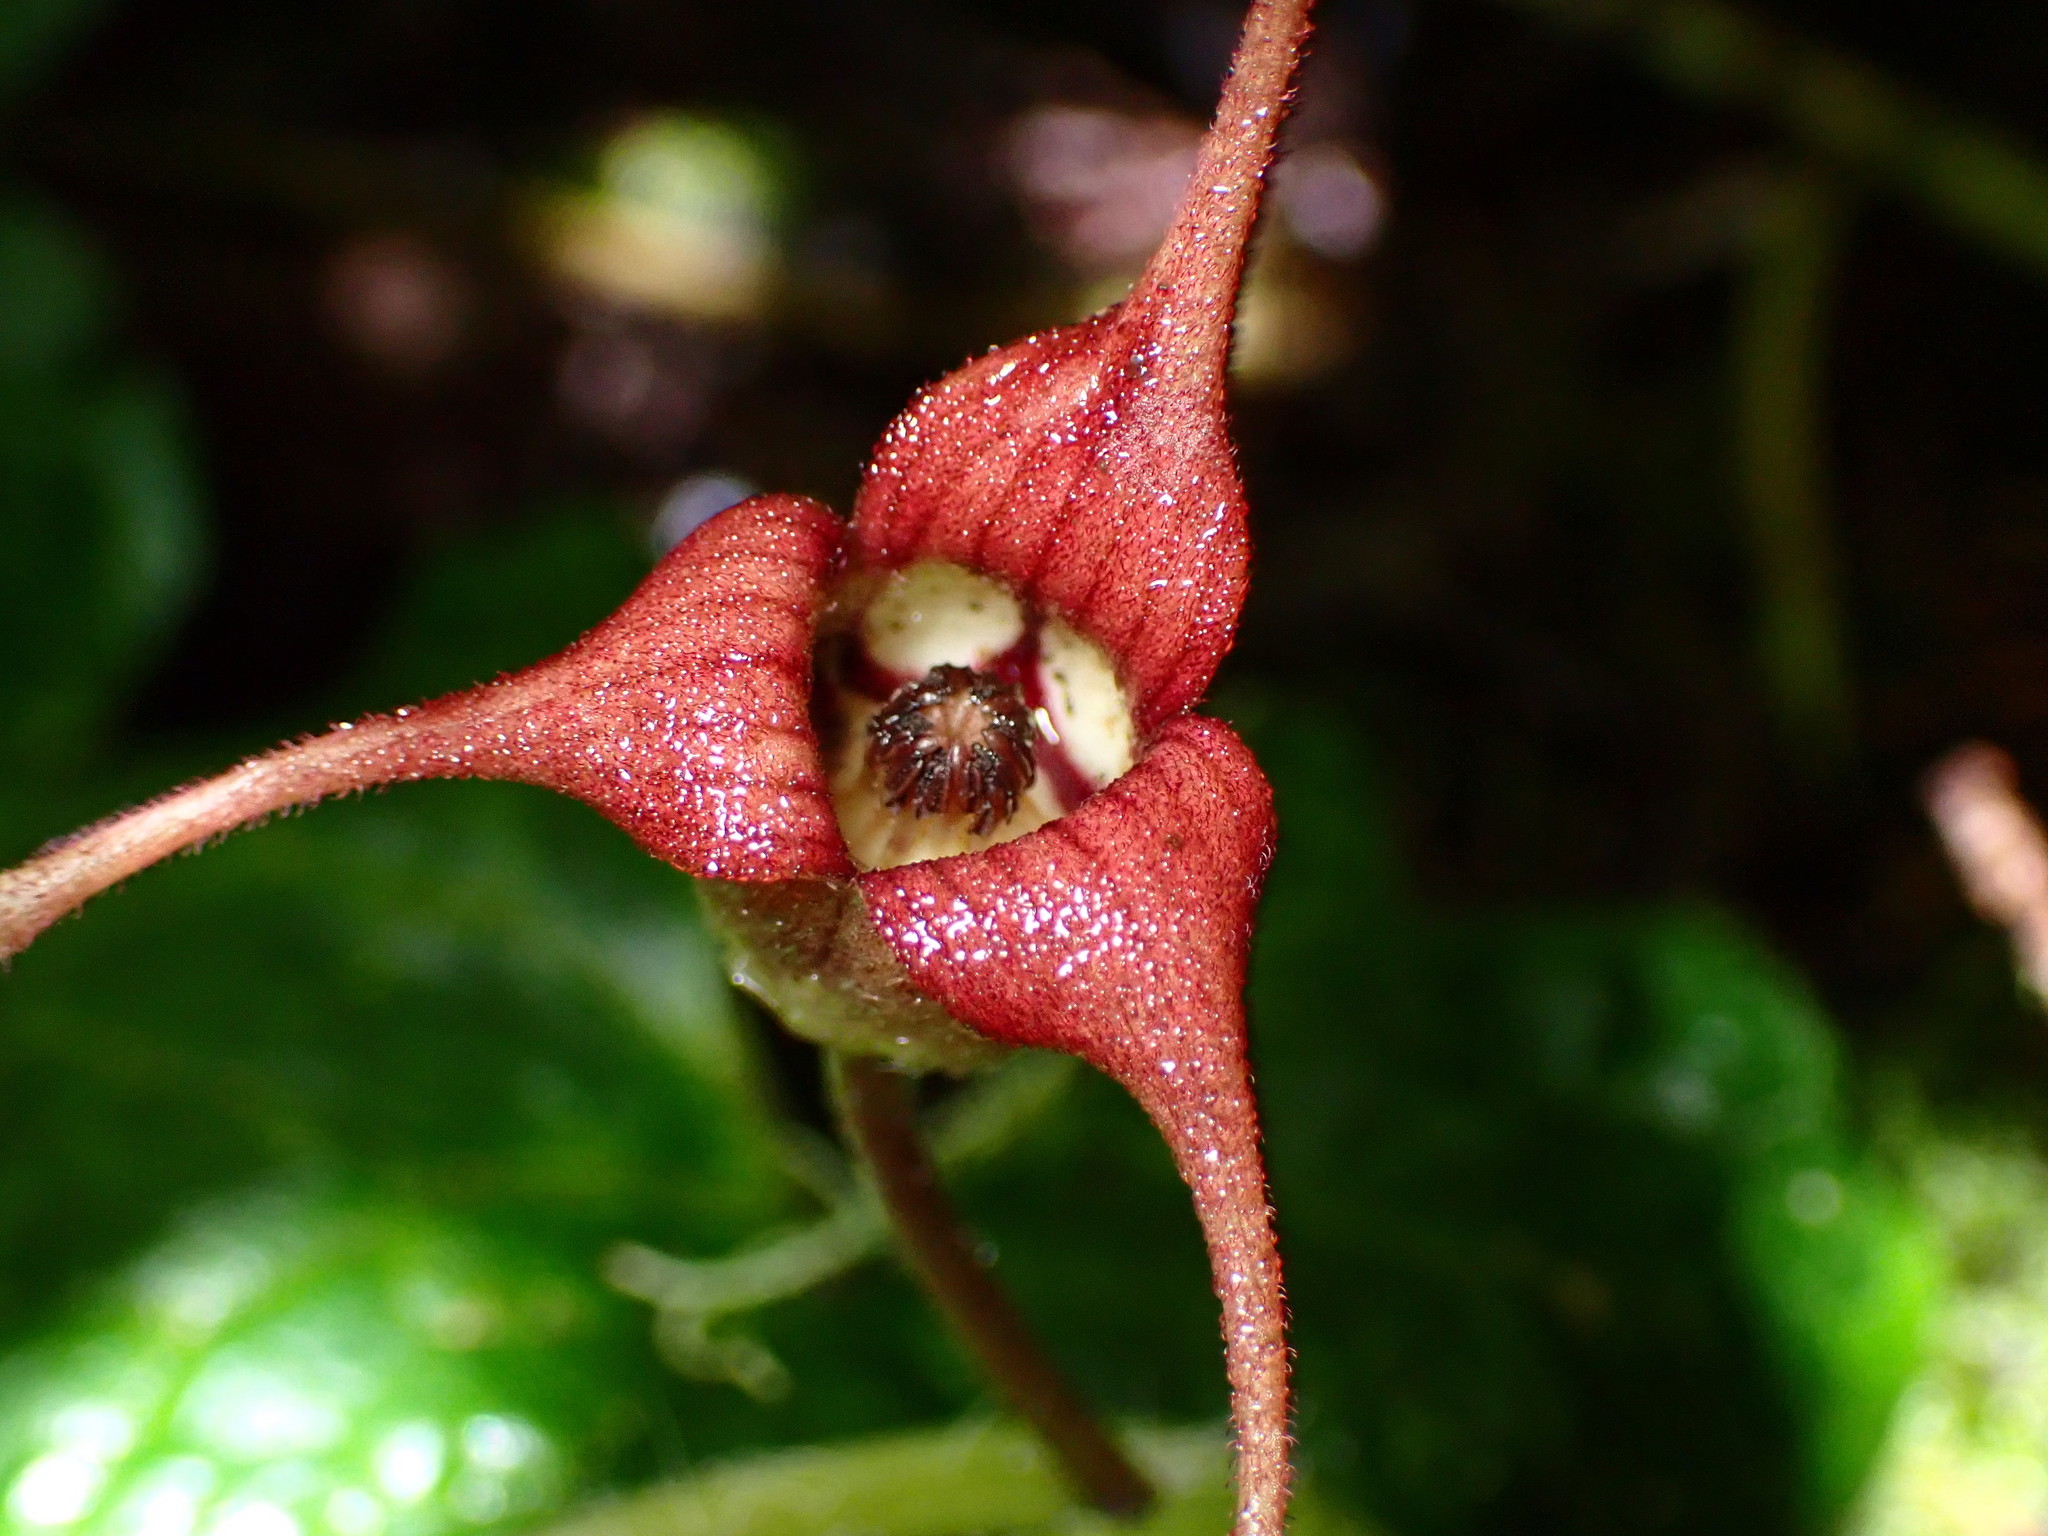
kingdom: Plantae
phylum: Tracheophyta
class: Magnoliopsida
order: Piperales
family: Aristolochiaceae
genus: Asarum
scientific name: Asarum caudatum
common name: Wild ginger
